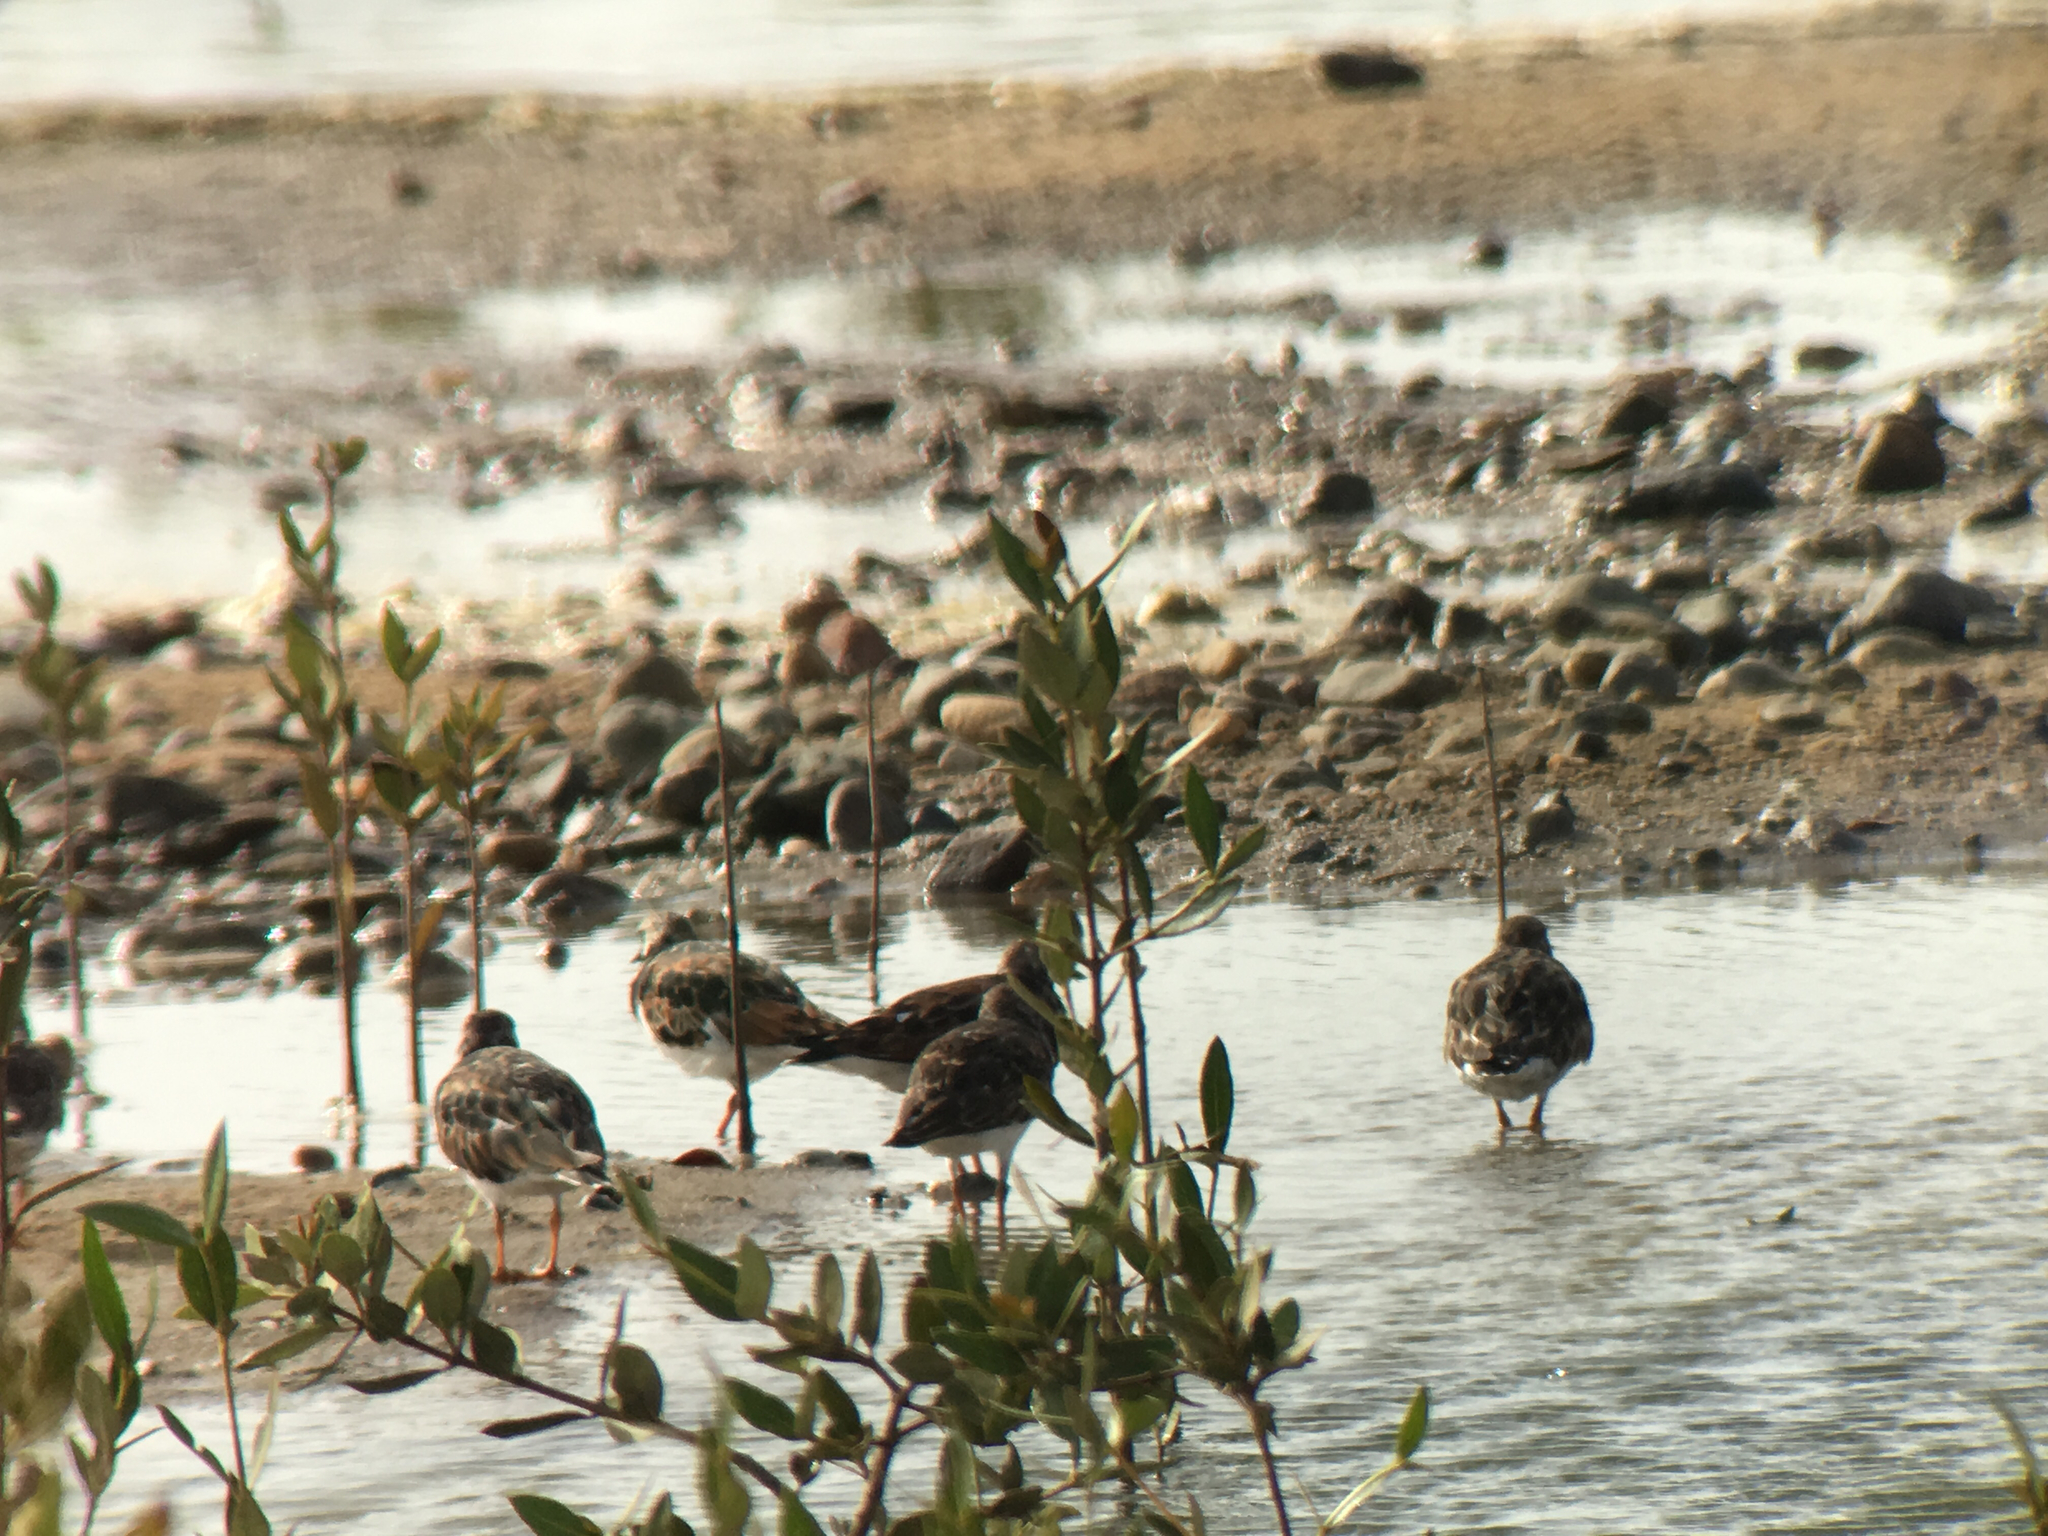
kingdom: Animalia
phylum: Chordata
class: Aves
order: Charadriiformes
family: Scolopacidae
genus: Arenaria
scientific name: Arenaria interpres
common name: Ruddy turnstone
